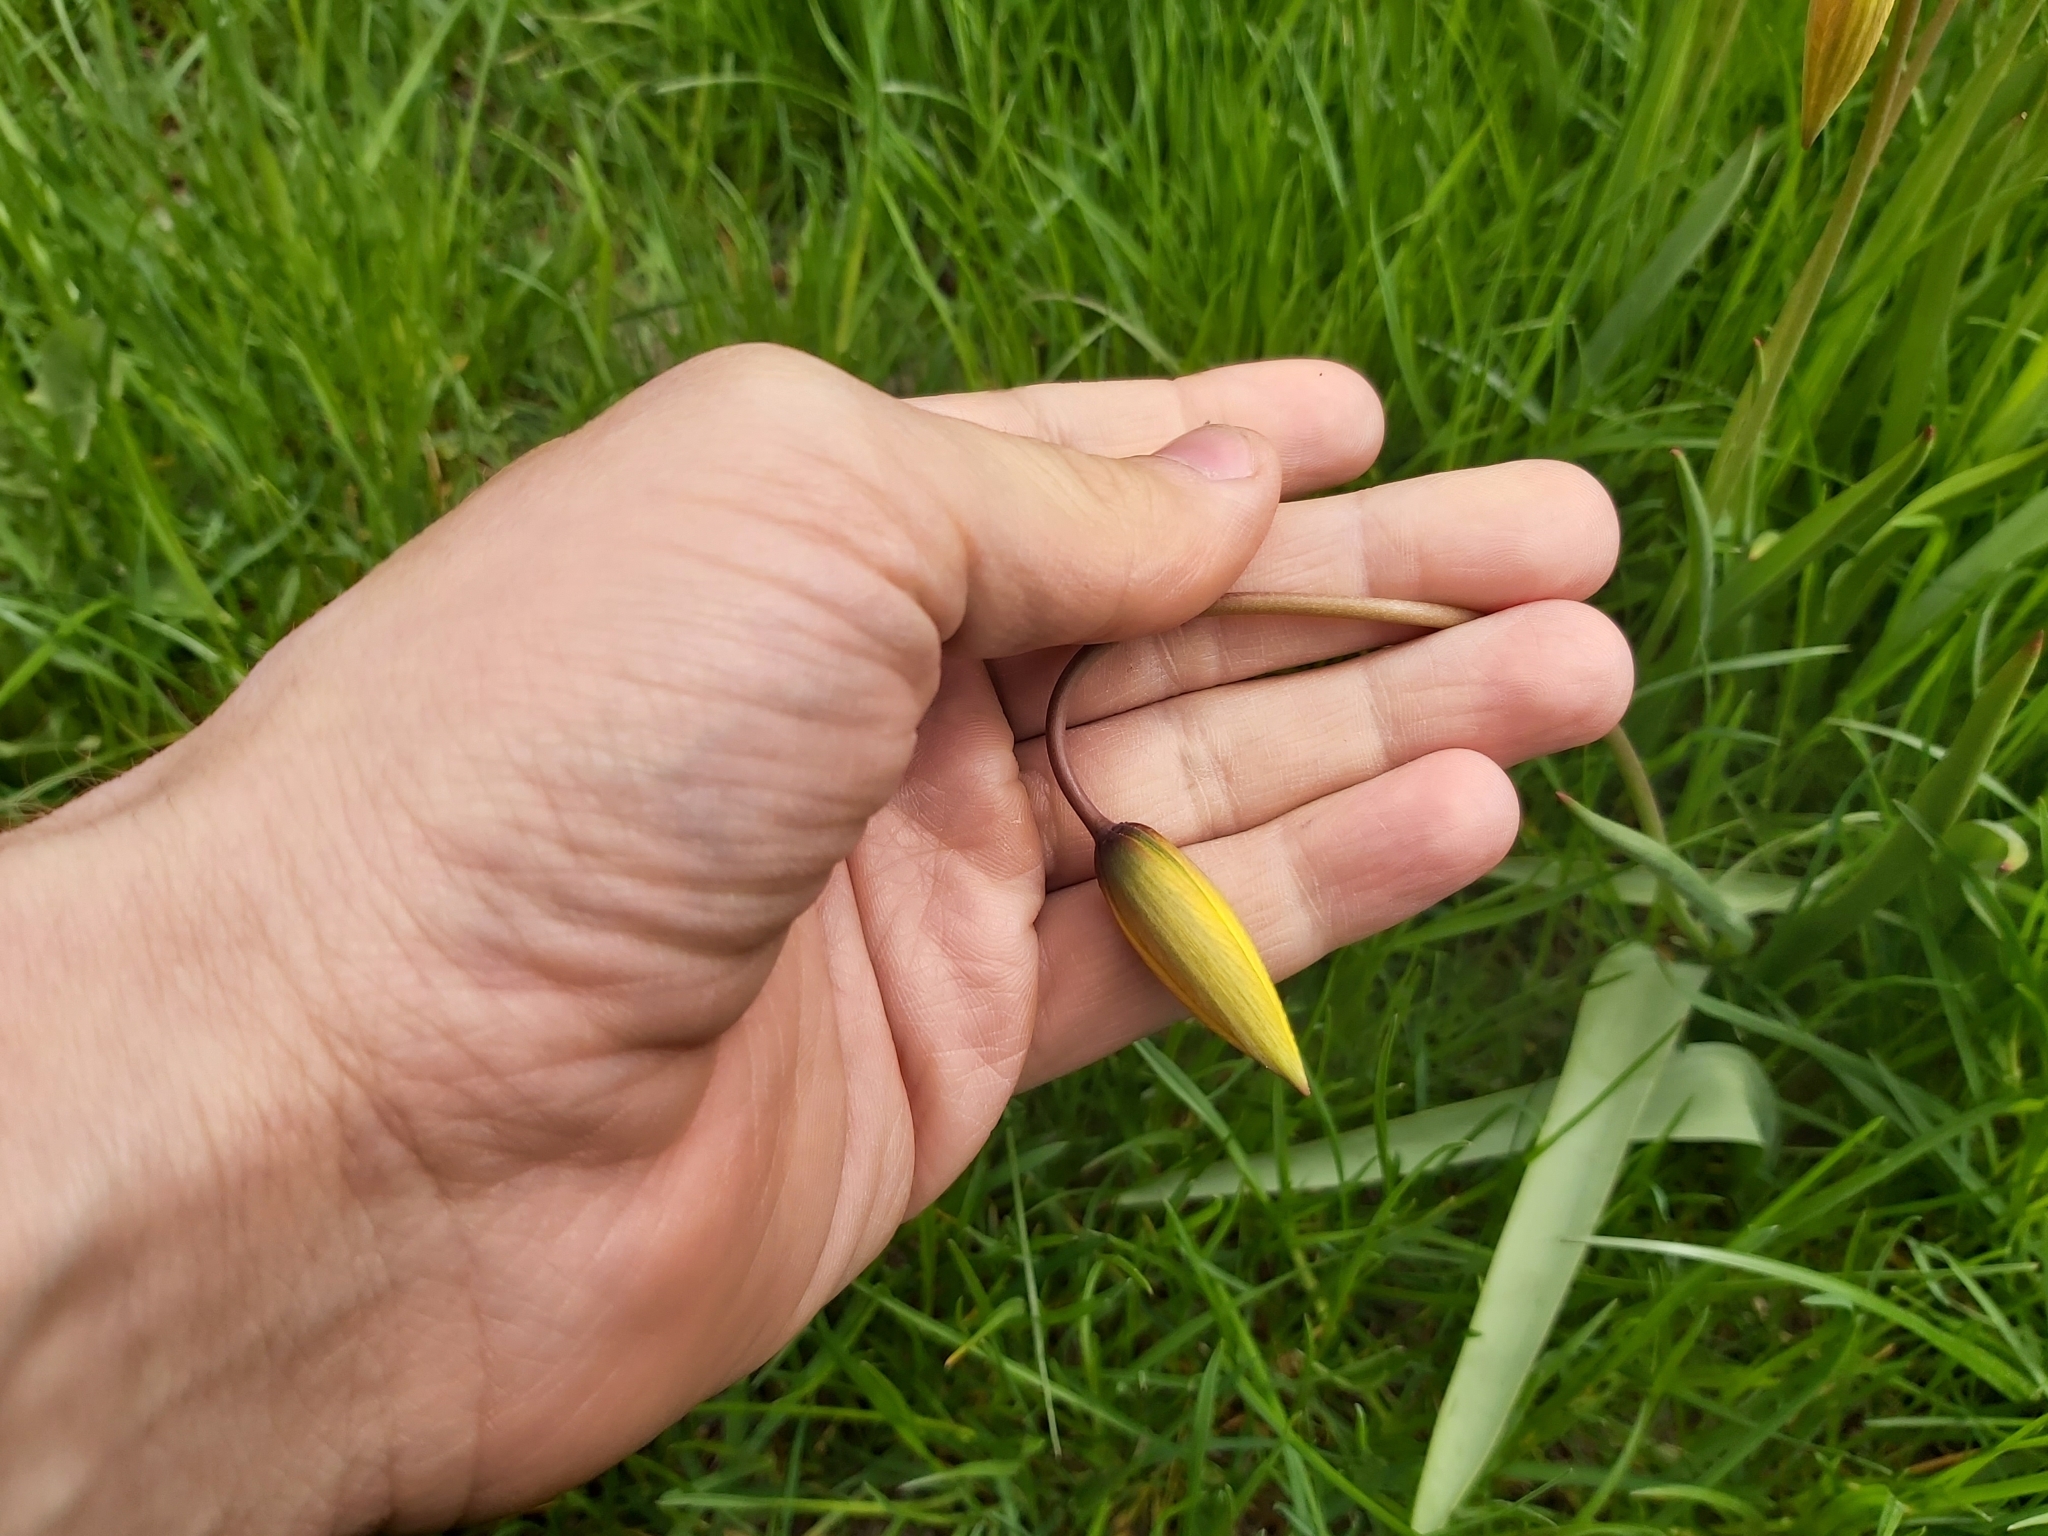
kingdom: Plantae
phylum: Tracheophyta
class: Liliopsida
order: Liliales
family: Liliaceae
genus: Tulipa
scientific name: Tulipa sylvestris
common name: Wild tulip
